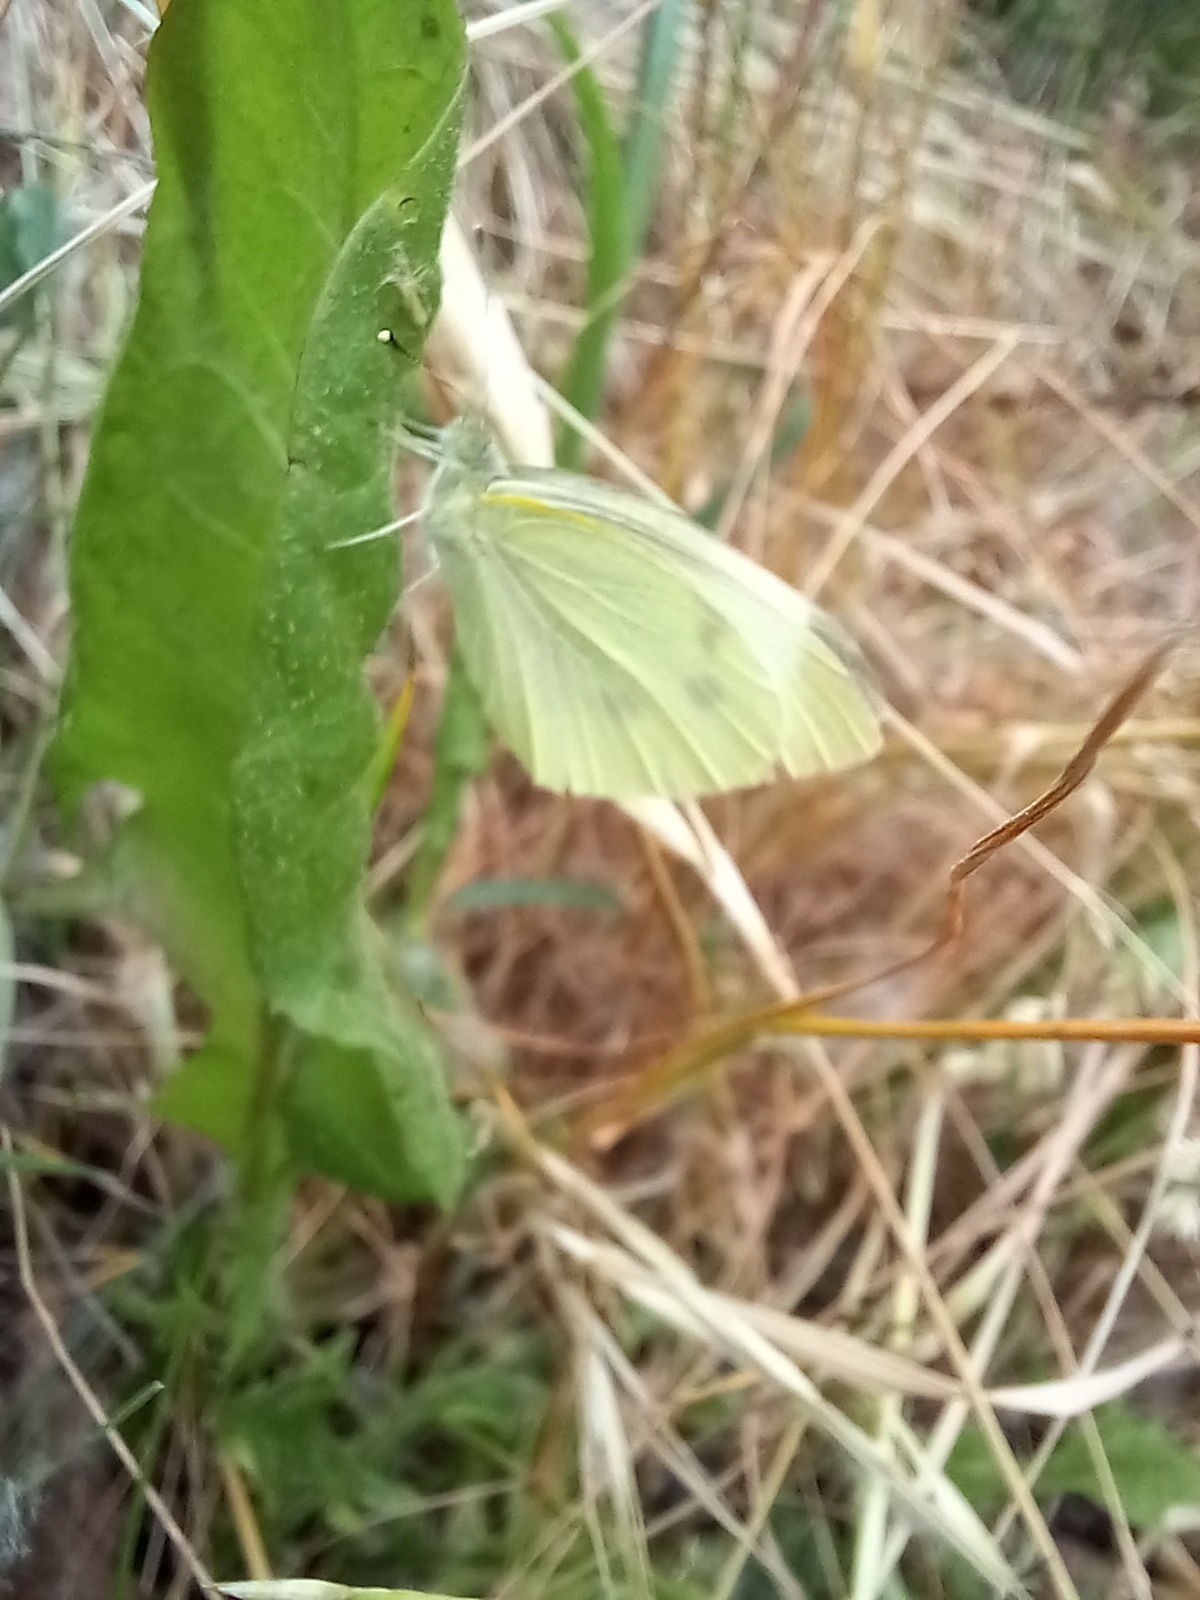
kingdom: Animalia
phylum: Arthropoda
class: Insecta
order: Lepidoptera
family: Pieridae
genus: Pieris
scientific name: Pieris rapae
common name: Small white
